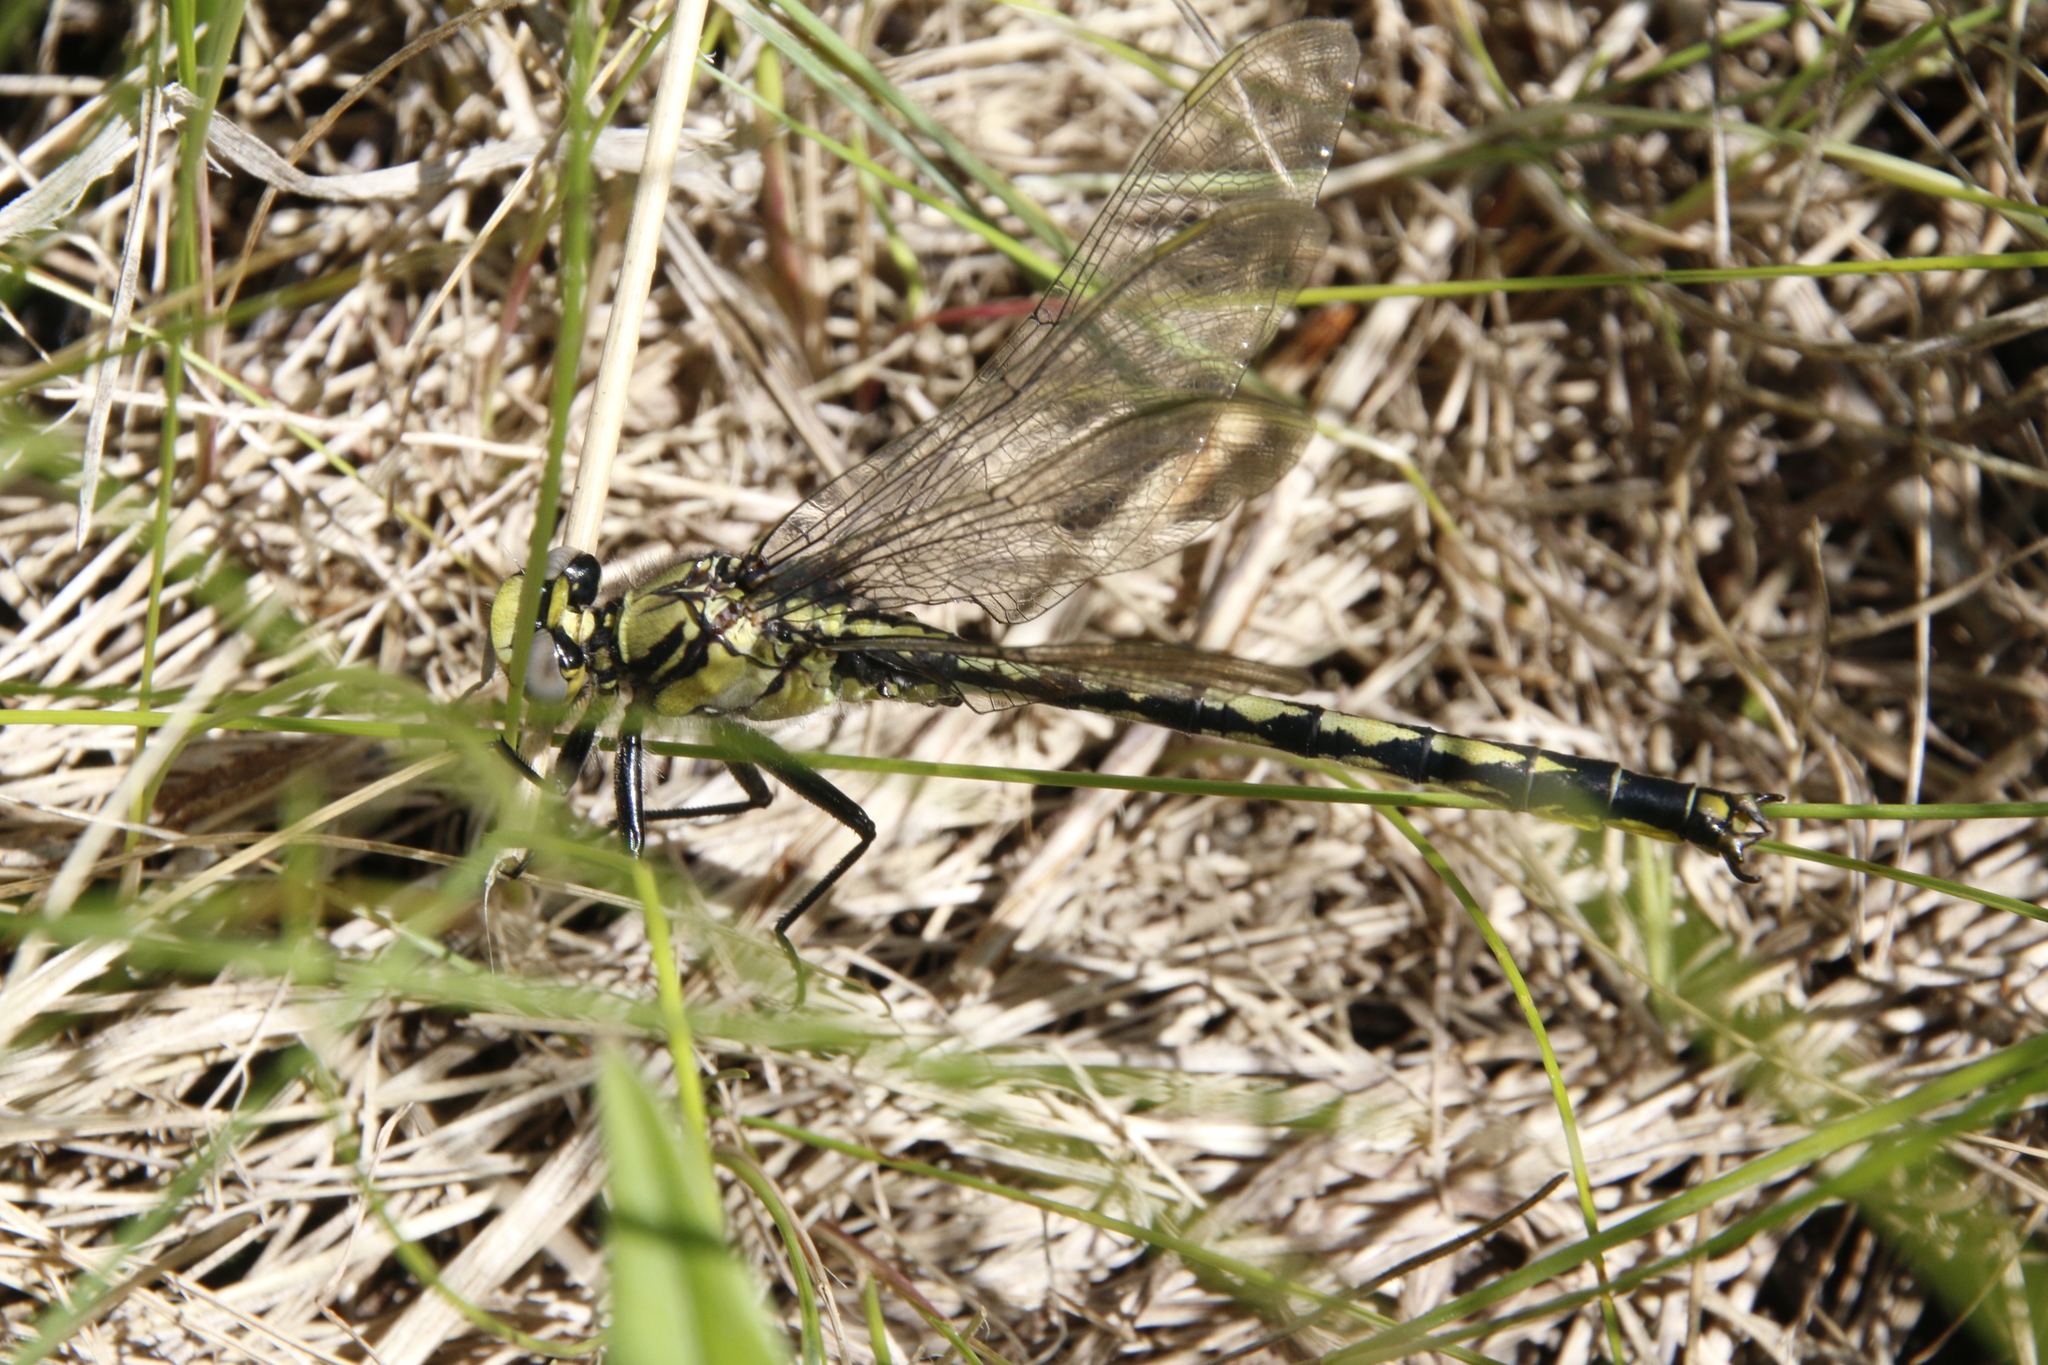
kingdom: Animalia
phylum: Arthropoda
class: Insecta
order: Odonata
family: Gomphidae
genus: Arigomphus
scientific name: Arigomphus cornutus
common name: Horned clubtail
